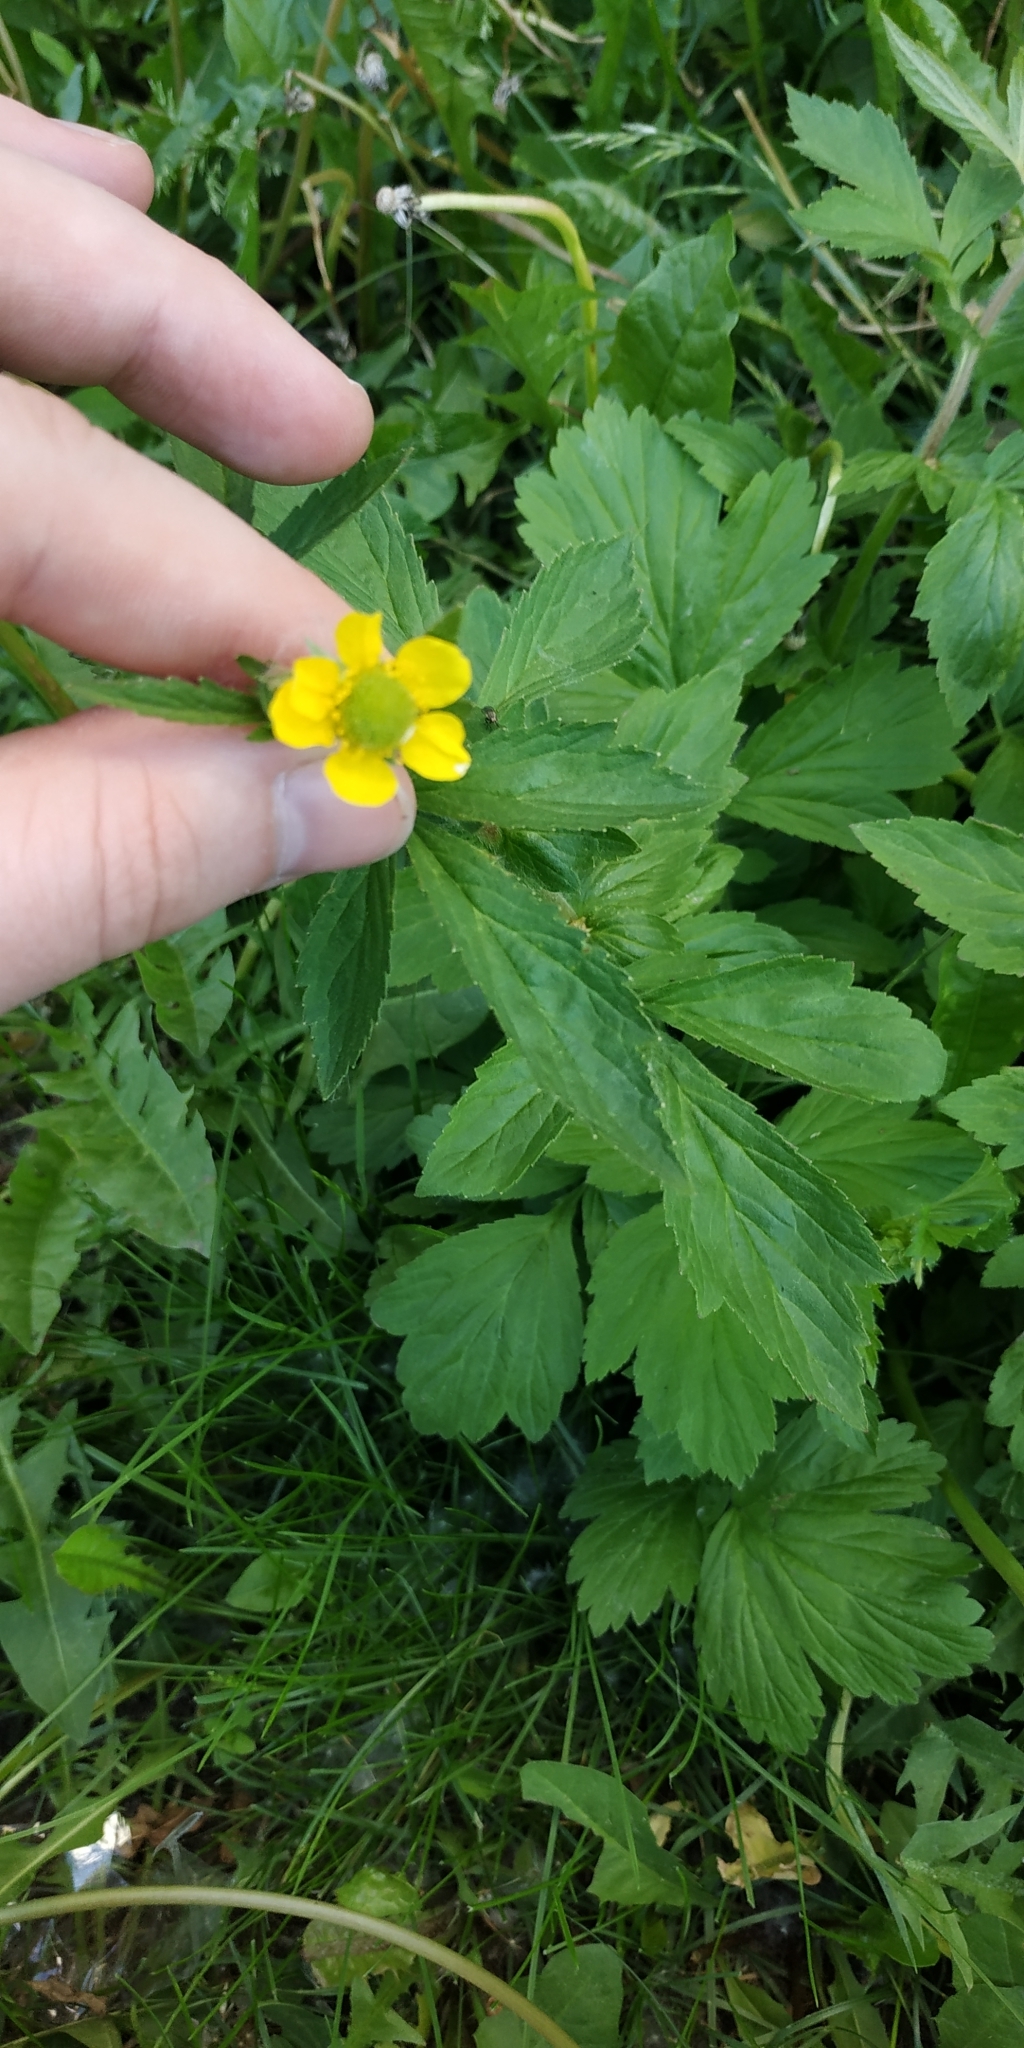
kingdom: Plantae
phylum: Tracheophyta
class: Magnoliopsida
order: Rosales
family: Rosaceae
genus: Geum
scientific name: Geum aleppicum
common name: Yellow avens
